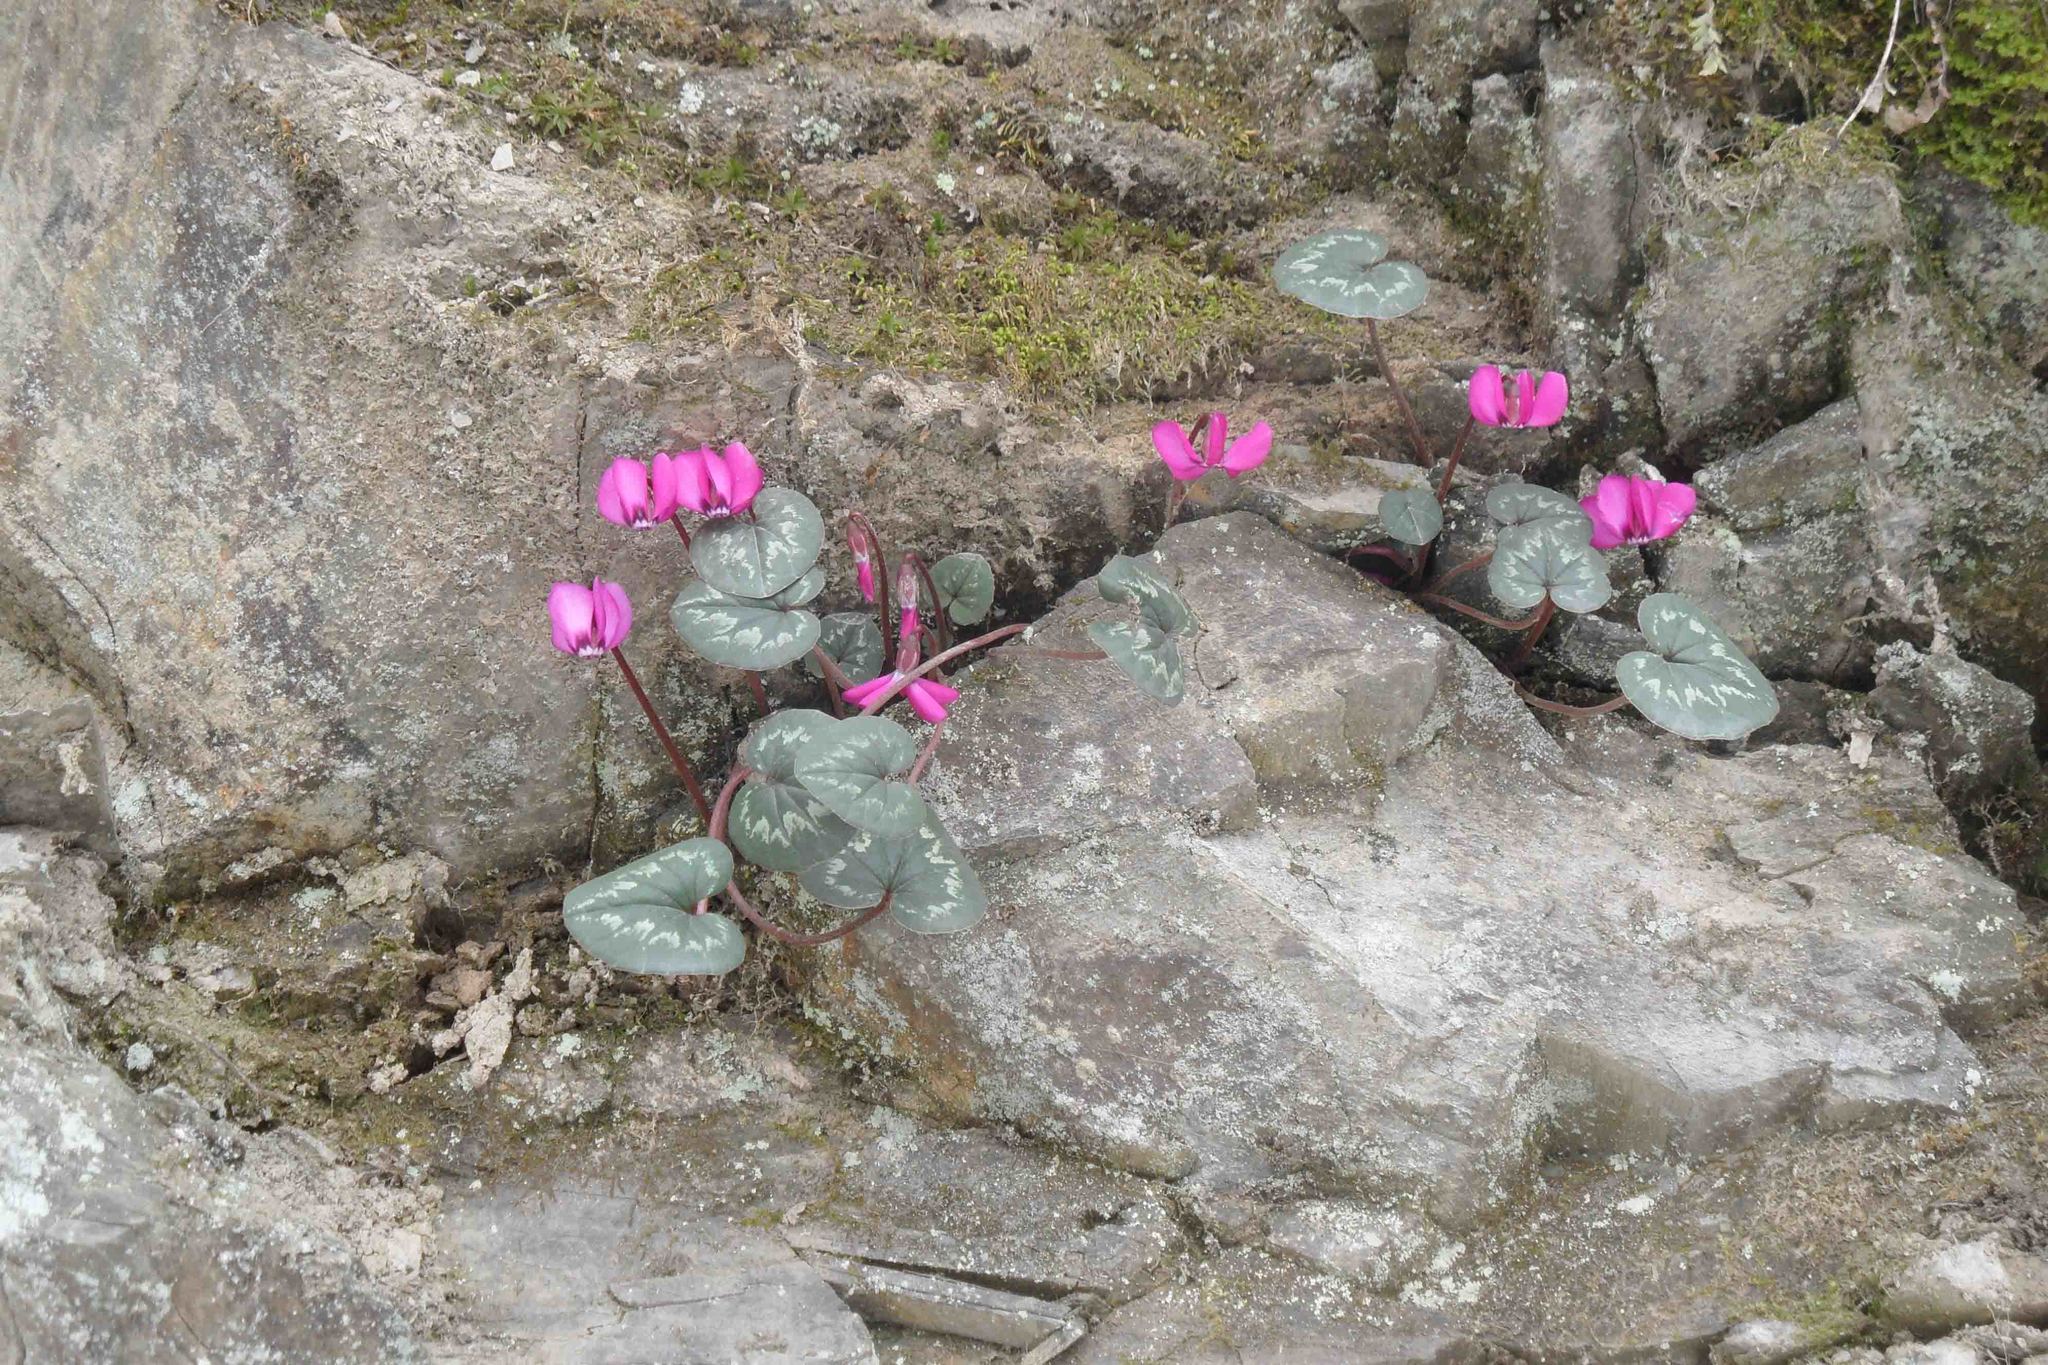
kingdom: Plantae
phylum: Tracheophyta
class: Magnoliopsida
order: Ericales
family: Primulaceae
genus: Cyclamen
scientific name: Cyclamen coum
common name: Eastern sowbread
